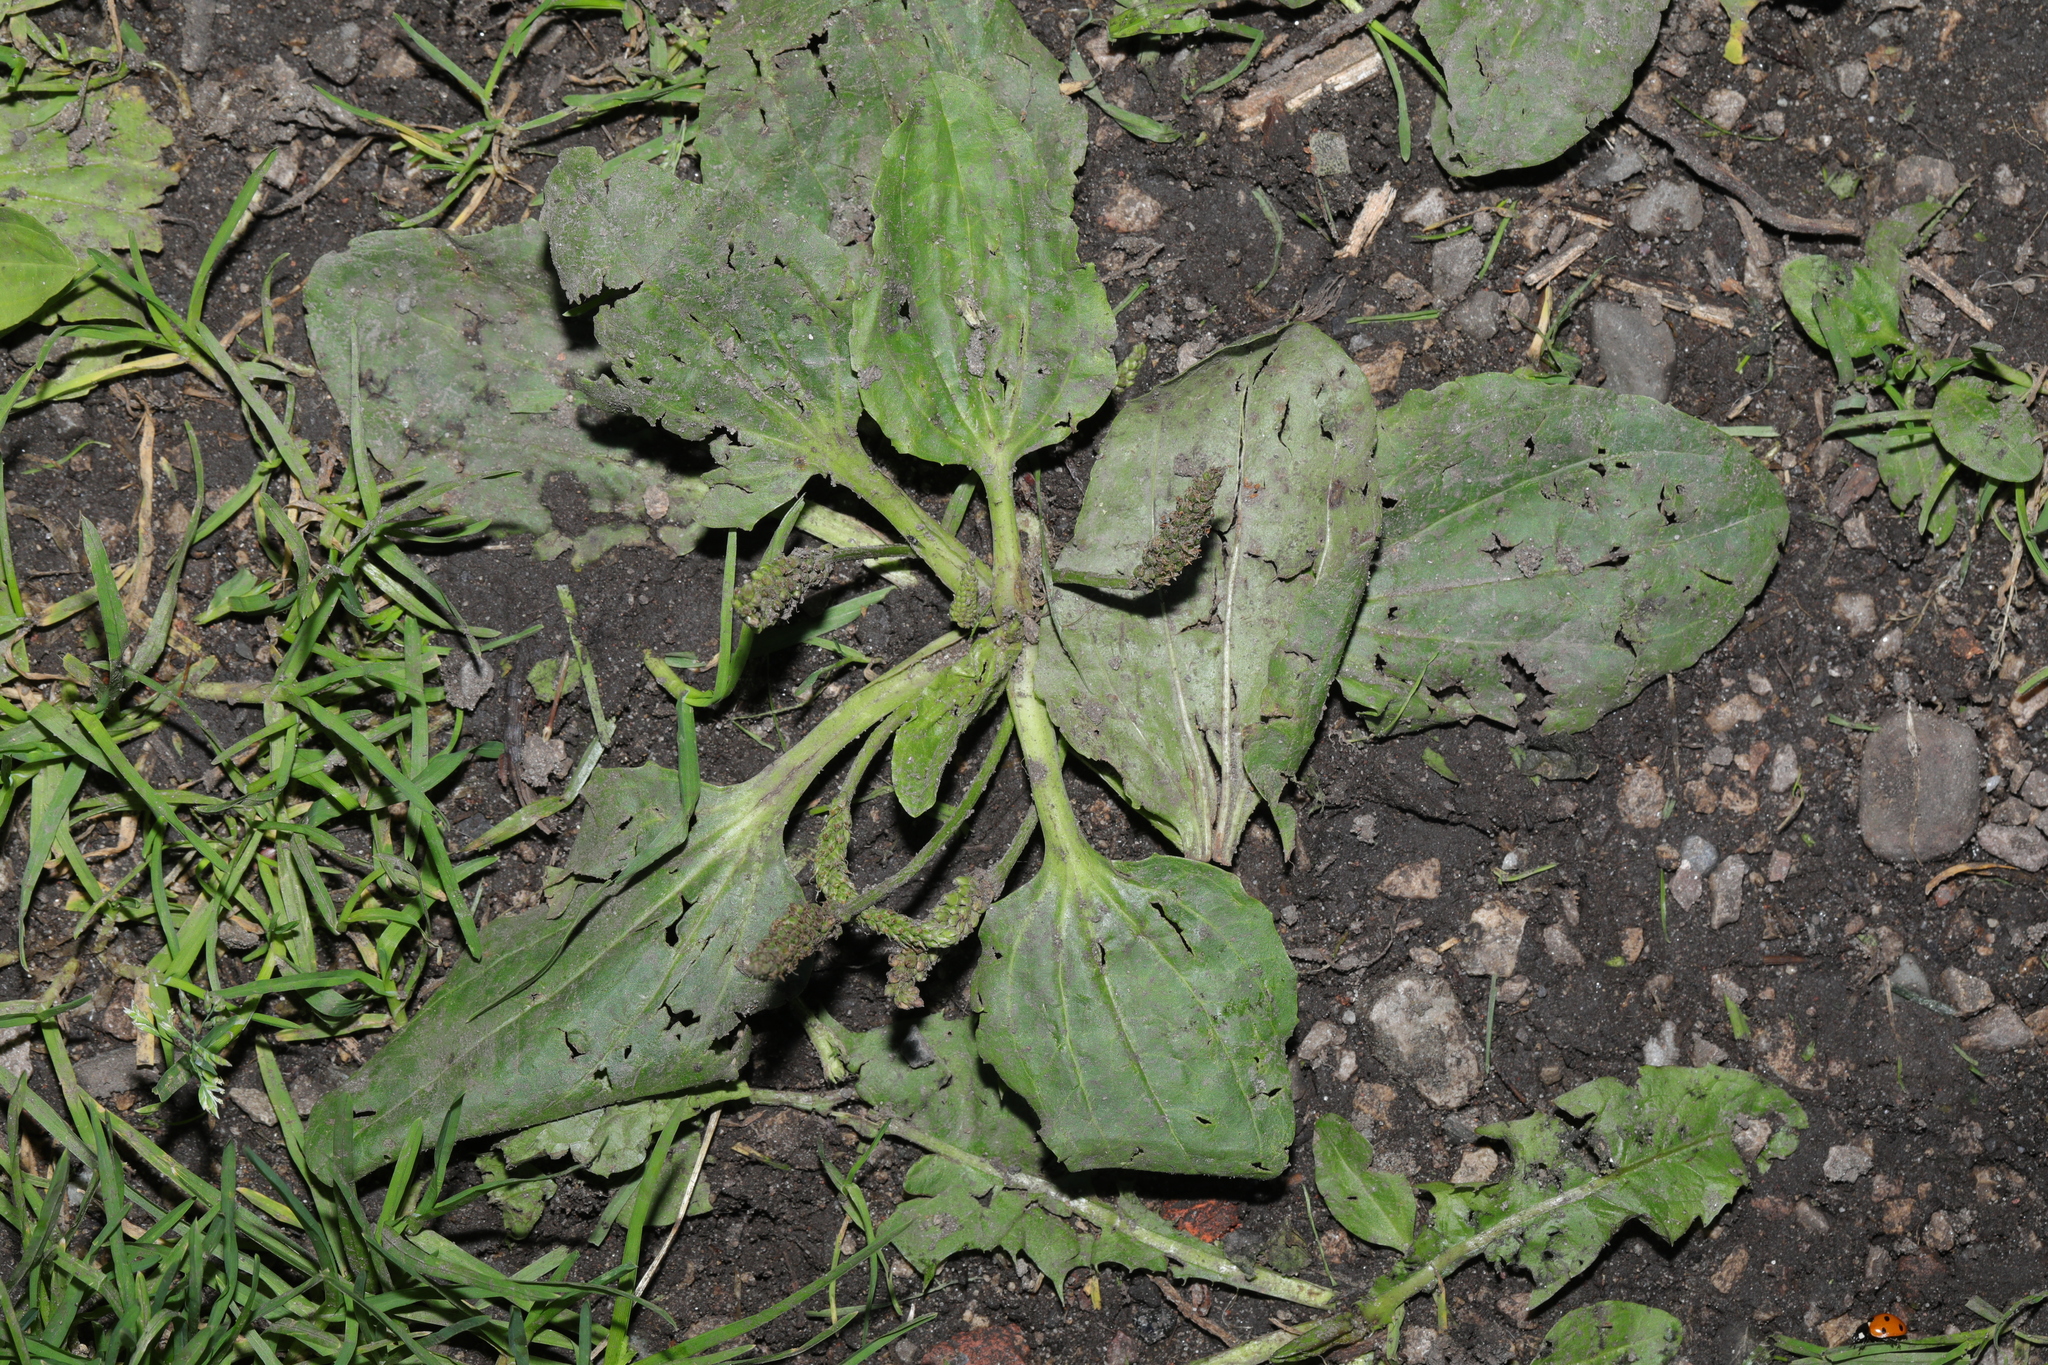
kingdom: Plantae
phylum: Tracheophyta
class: Magnoliopsida
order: Lamiales
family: Plantaginaceae
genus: Plantago
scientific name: Plantago major
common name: Common plantain
